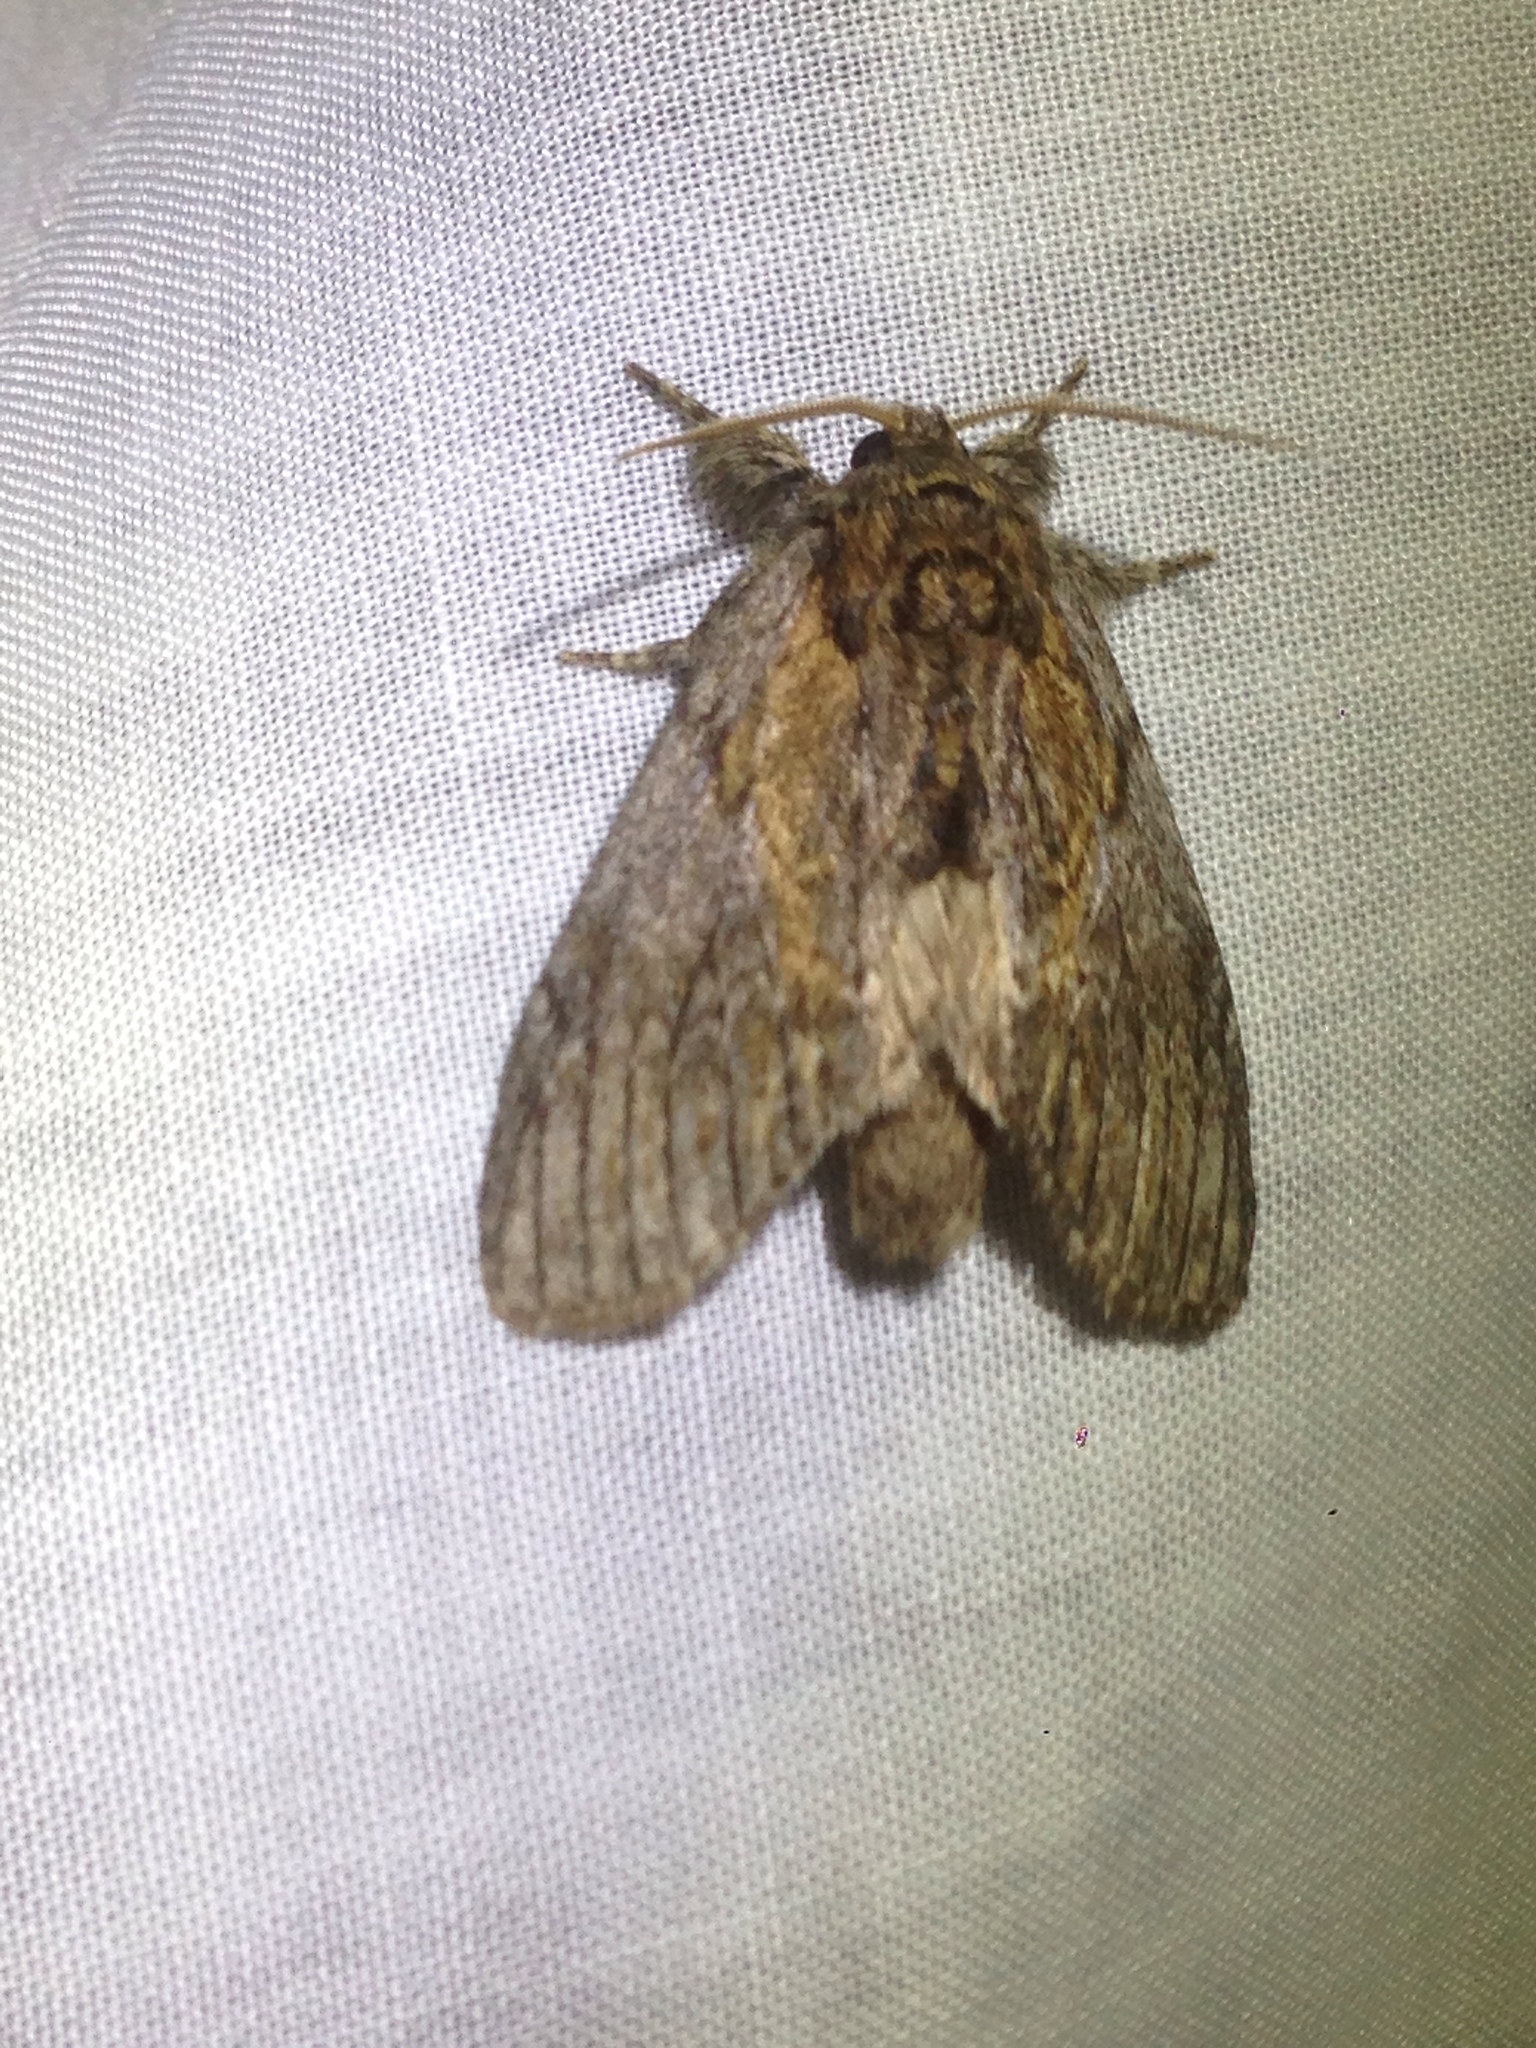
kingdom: Animalia
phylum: Arthropoda
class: Insecta
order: Lepidoptera
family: Notodontidae
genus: Peridea
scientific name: Peridea basitriens
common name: Oval-based prominent
